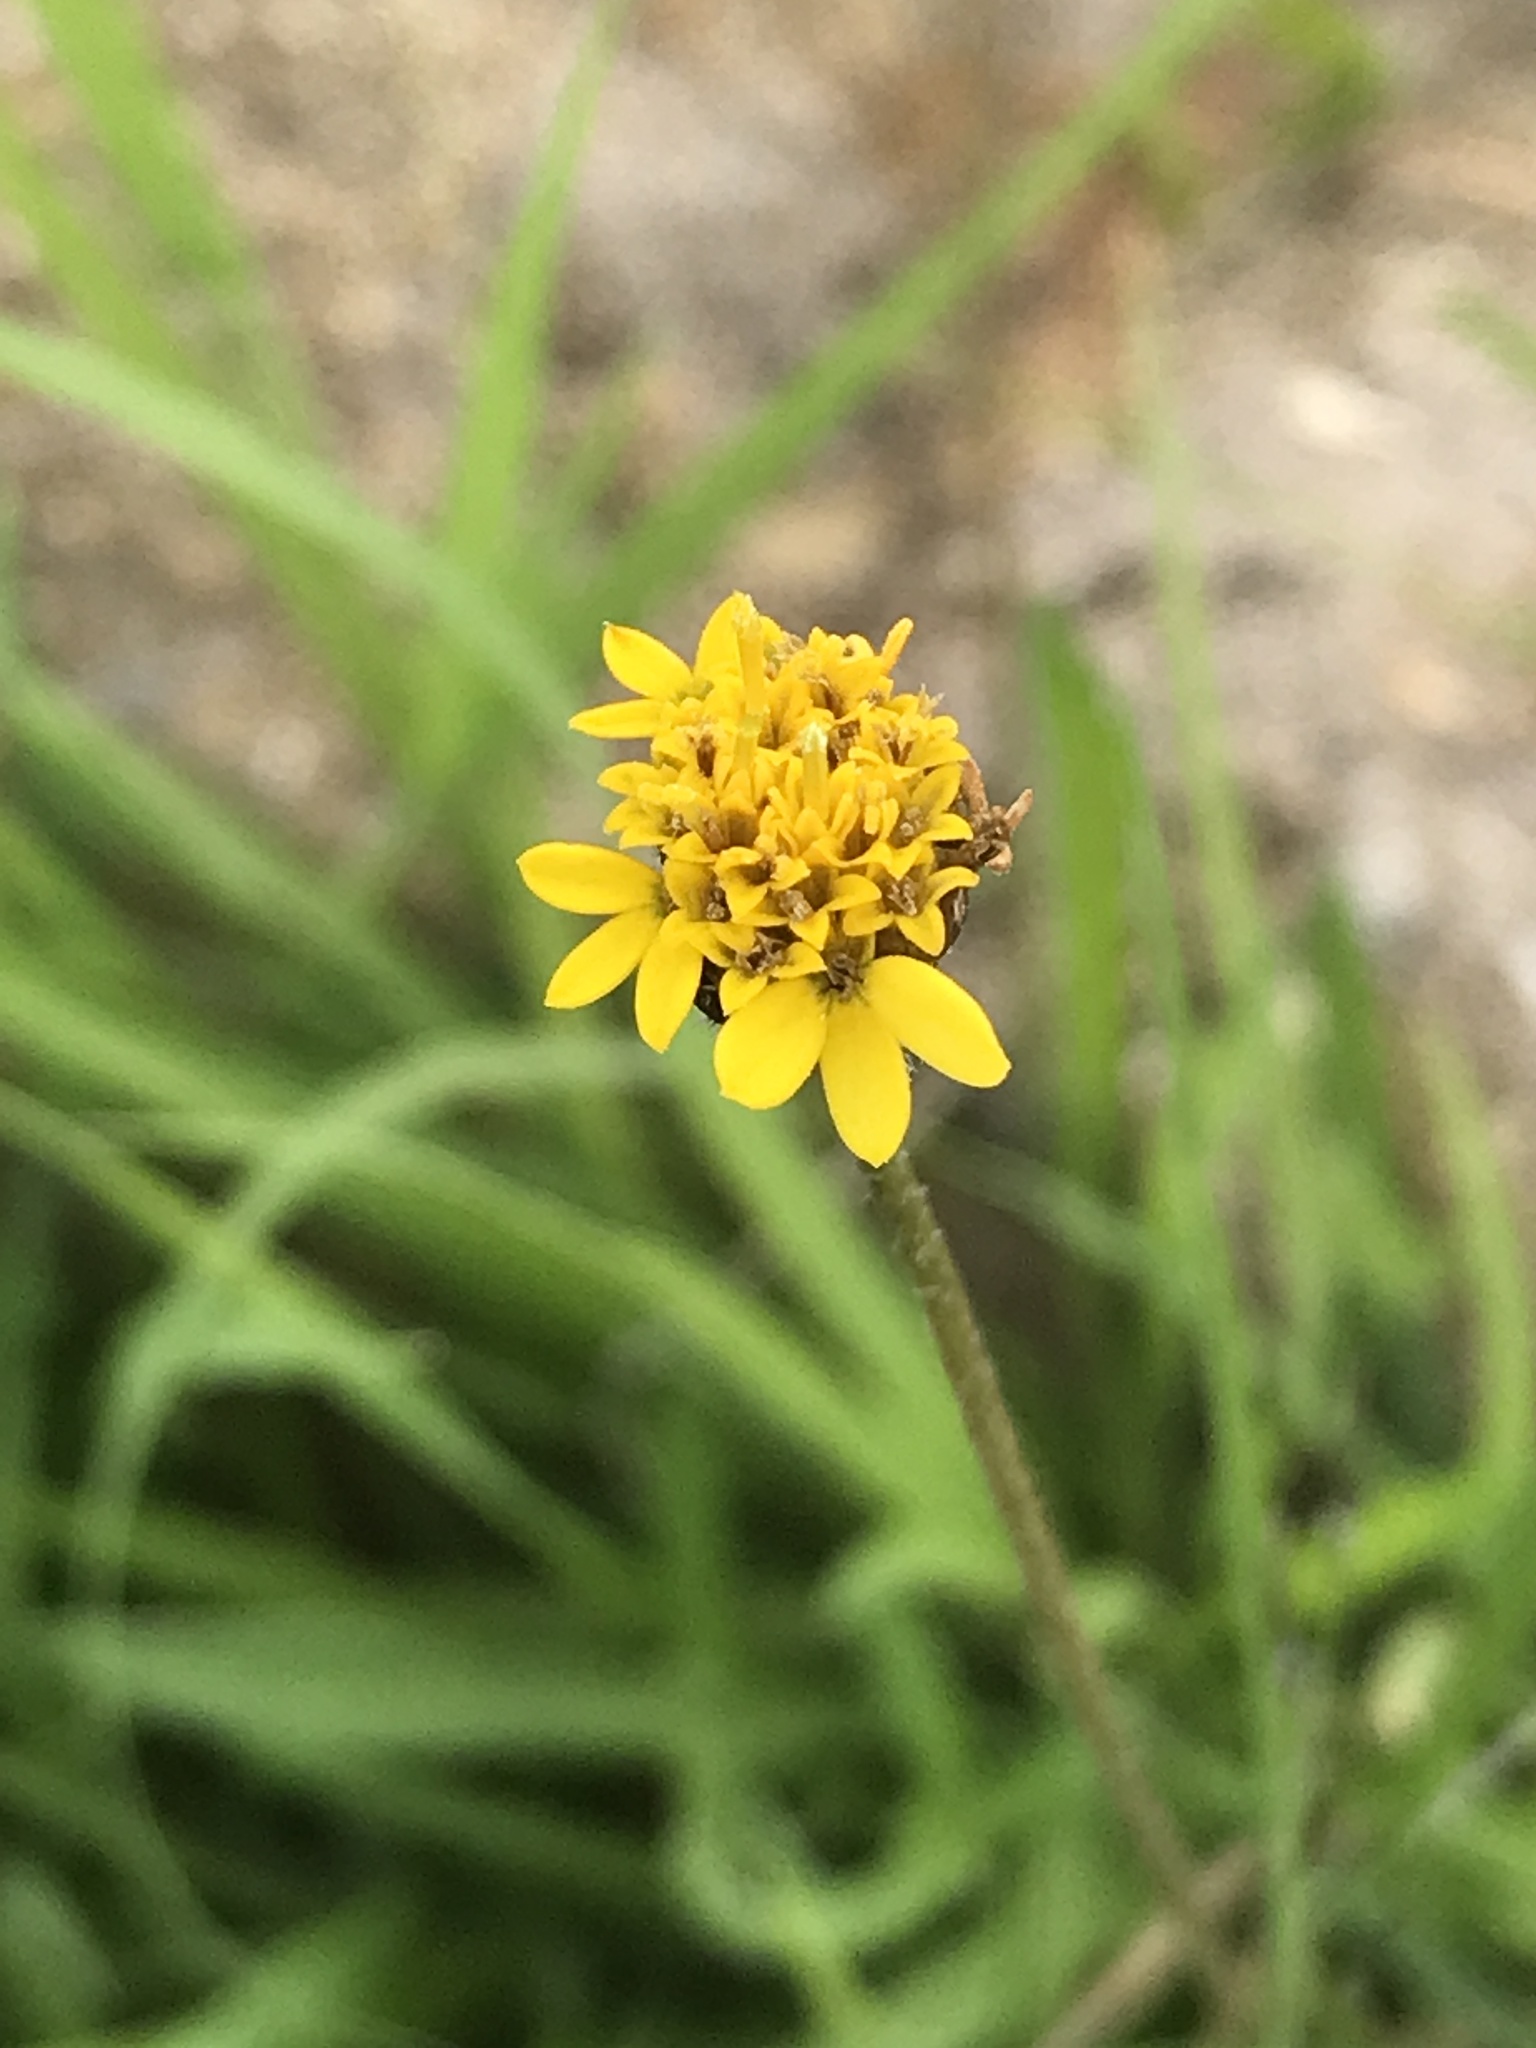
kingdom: Plantae
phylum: Tracheophyta
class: Magnoliopsida
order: Asterales
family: Asteraceae
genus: Tridax
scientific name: Tridax coronopifolia
